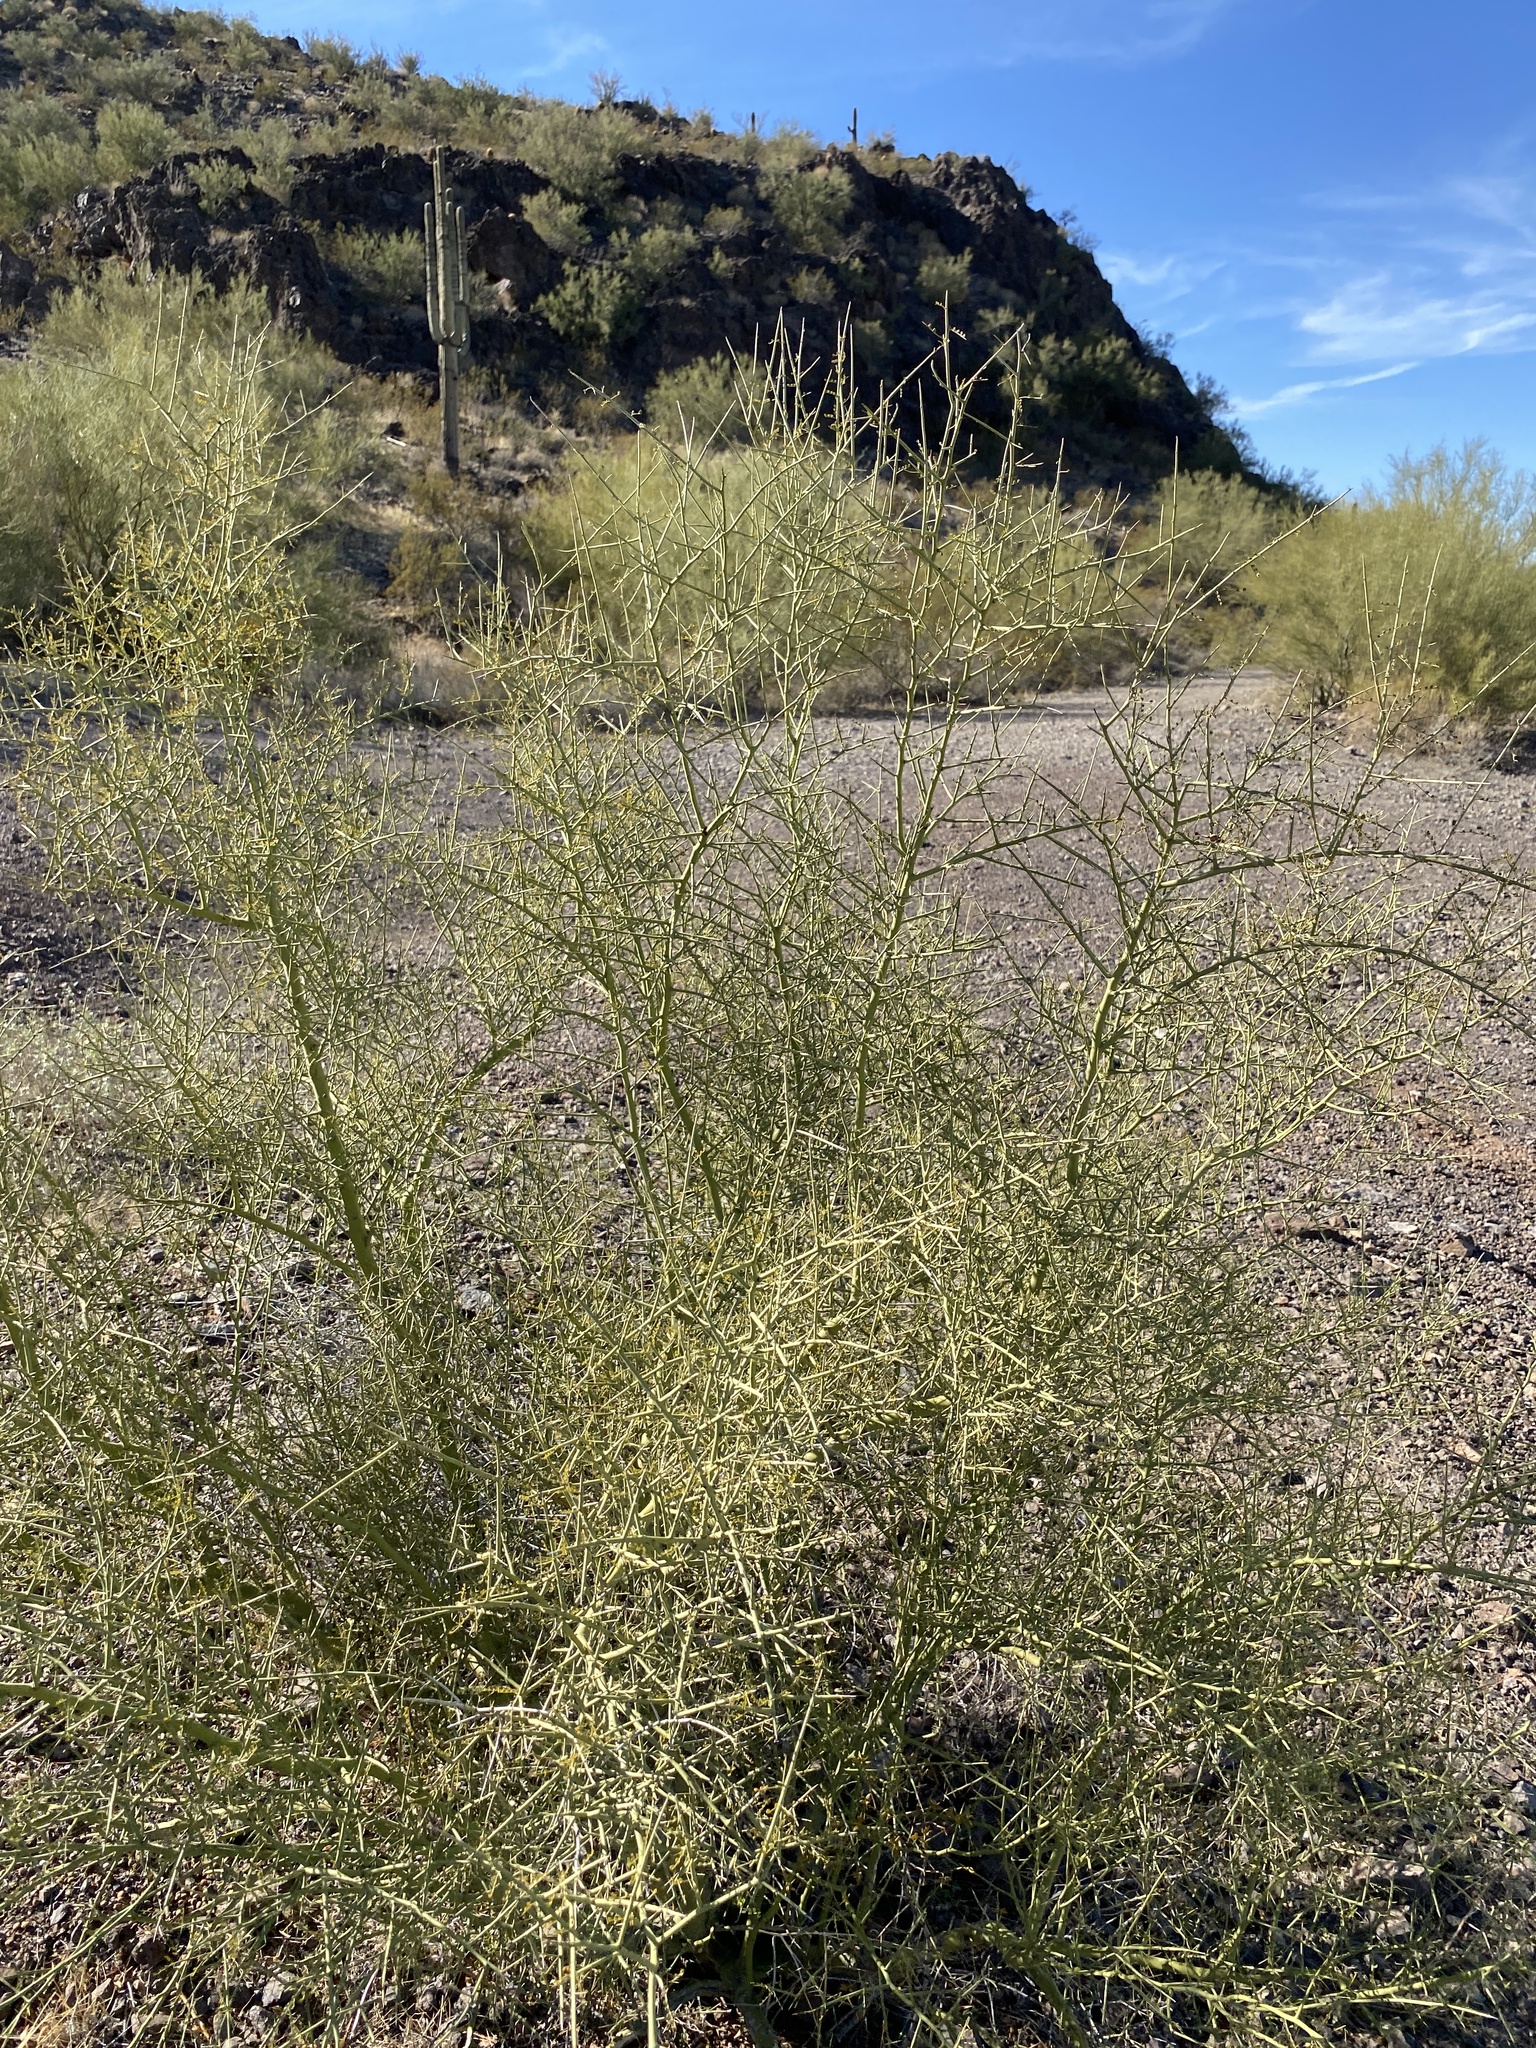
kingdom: Plantae
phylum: Tracheophyta
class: Magnoliopsida
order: Fabales
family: Fabaceae
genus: Parkinsonia
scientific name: Parkinsonia microphylla
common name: Yellow paloverde
